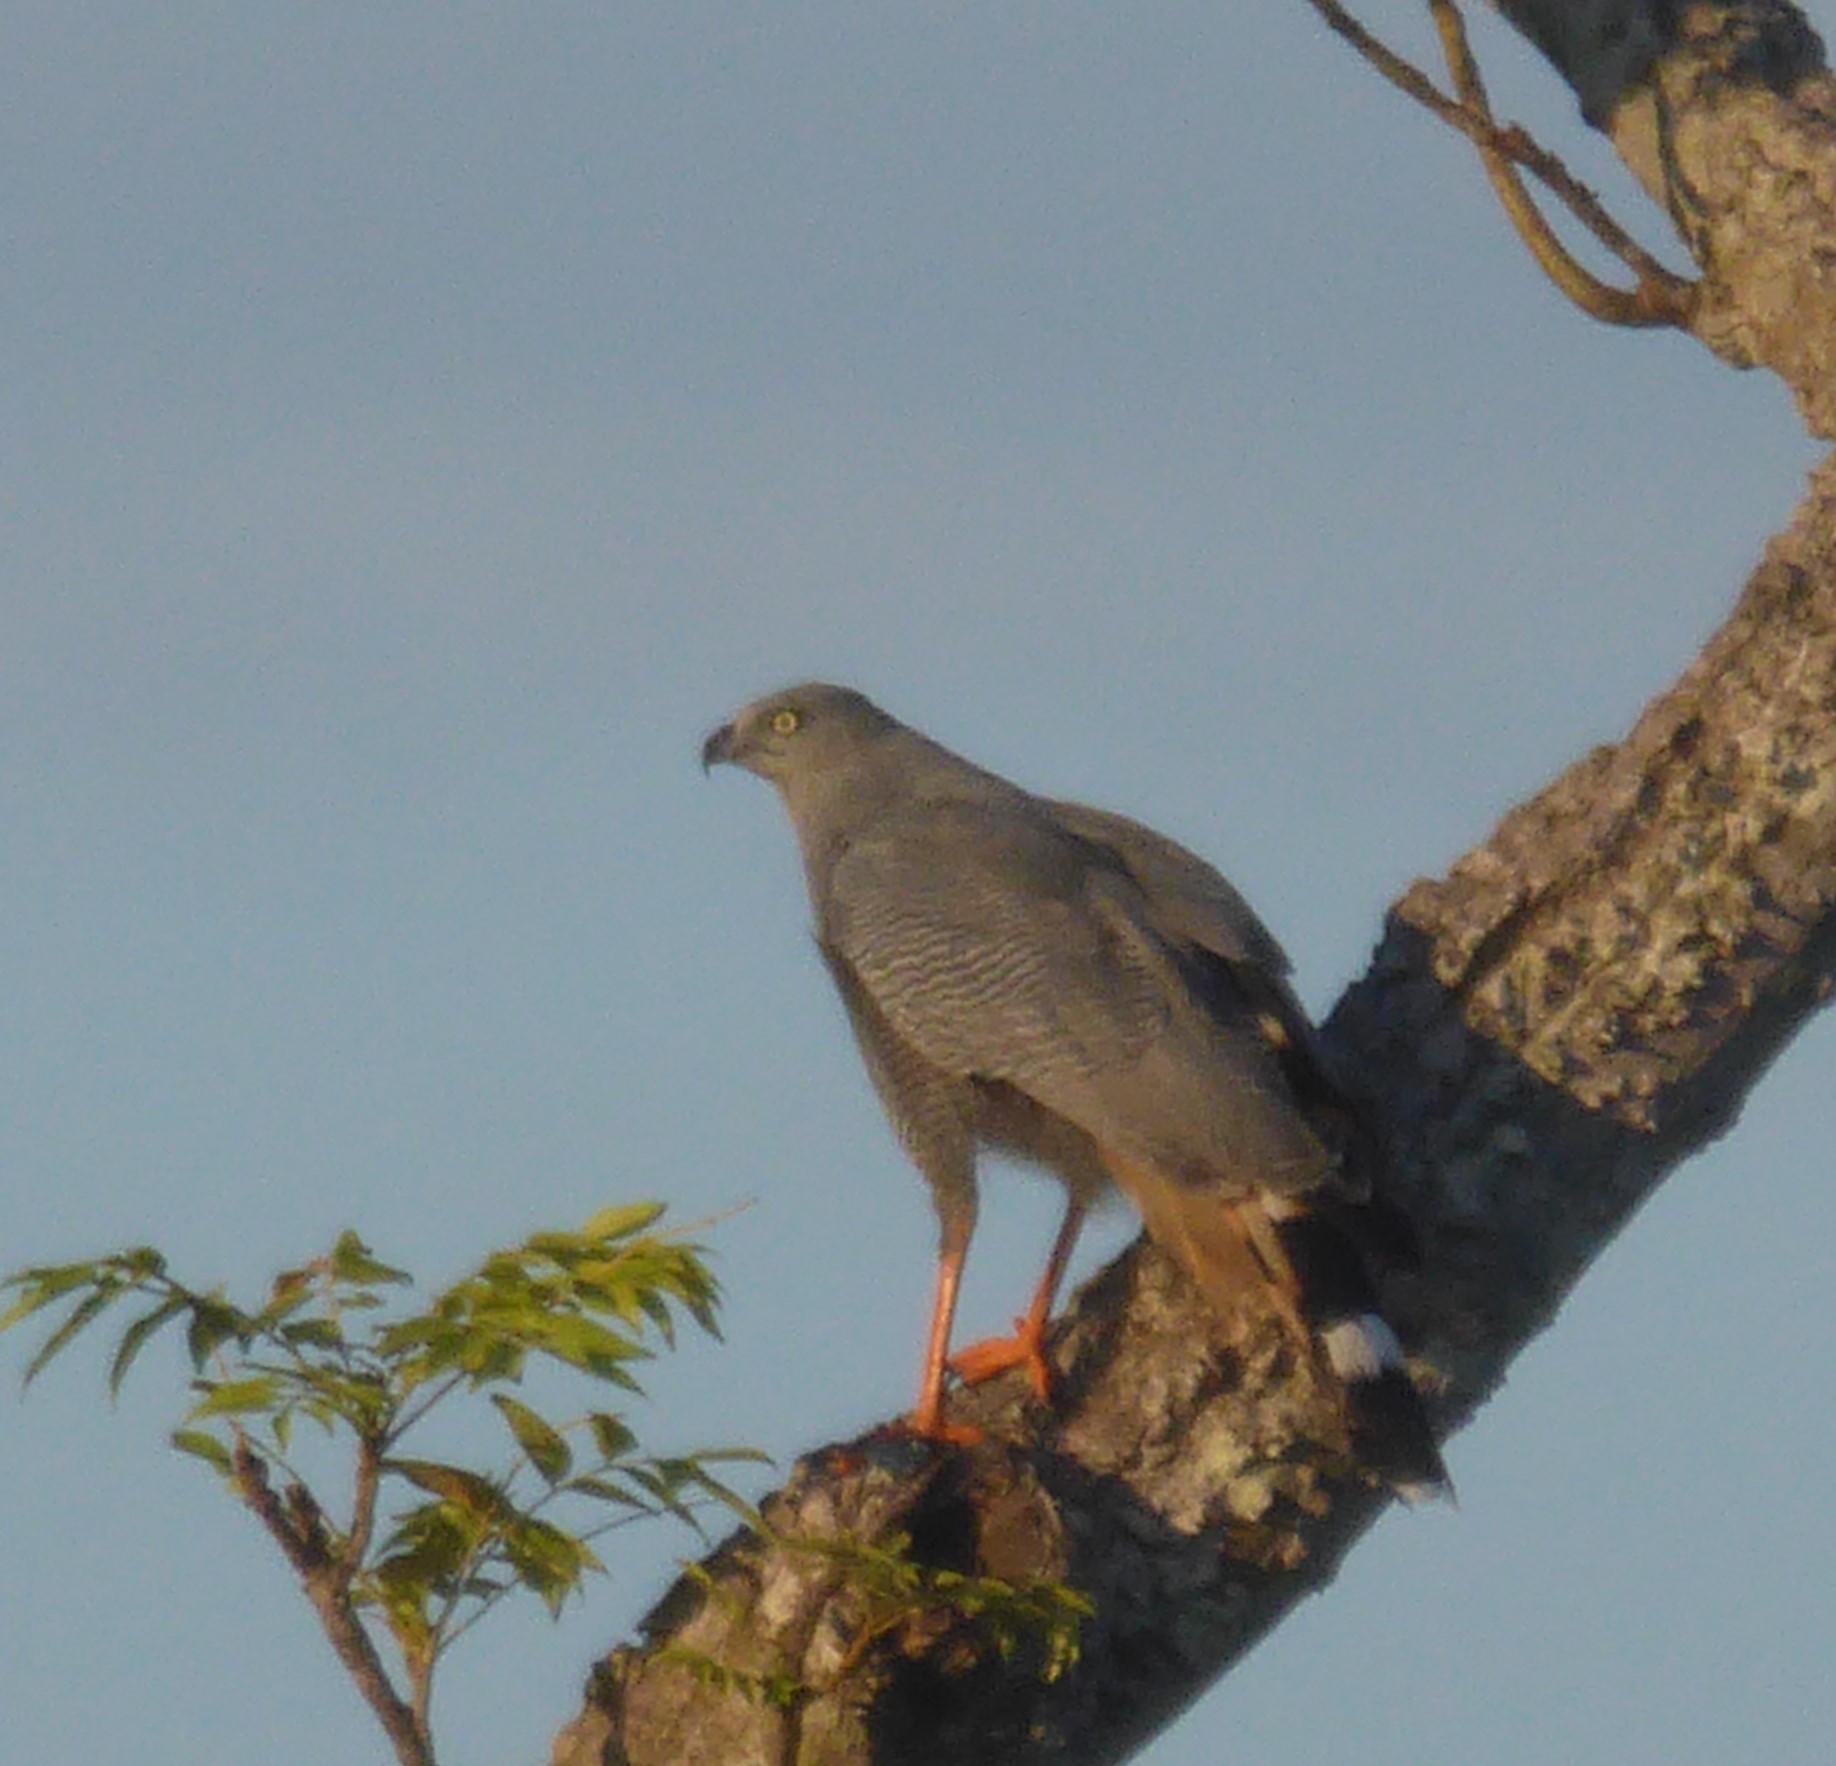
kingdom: Animalia
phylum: Chordata
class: Aves
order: Accipitriformes
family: Accipitridae
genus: Geranospiza
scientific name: Geranospiza caerulescens
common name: Crane hawk
